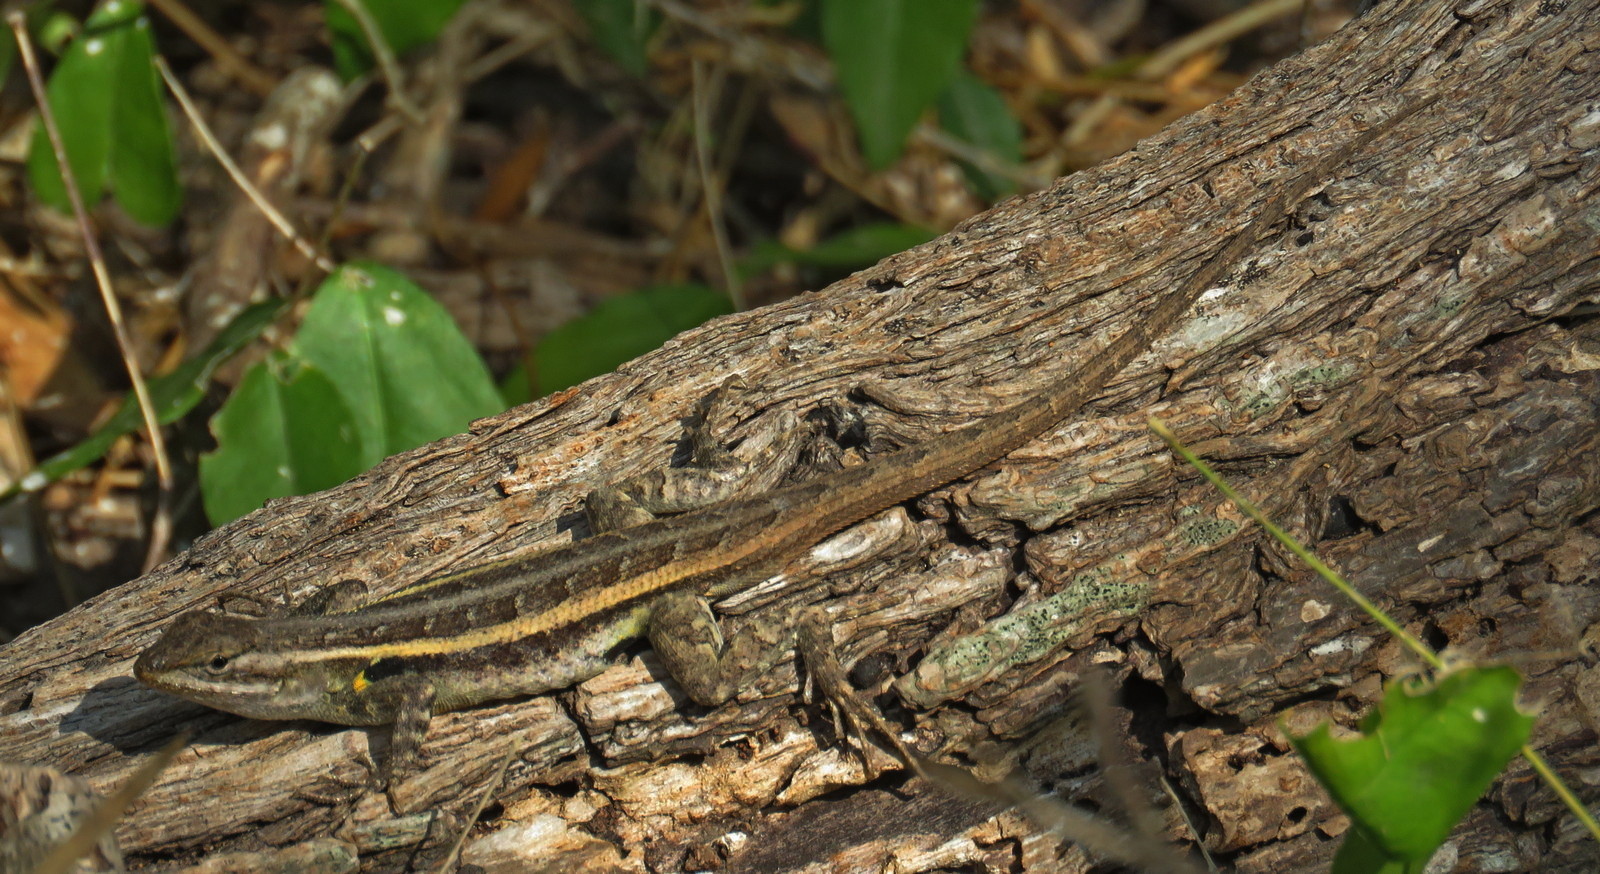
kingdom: Animalia
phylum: Chordata
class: Squamata
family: Phrynosomatidae
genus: Sceloporus
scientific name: Sceloporus variabilis
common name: Rosebelly lizard
